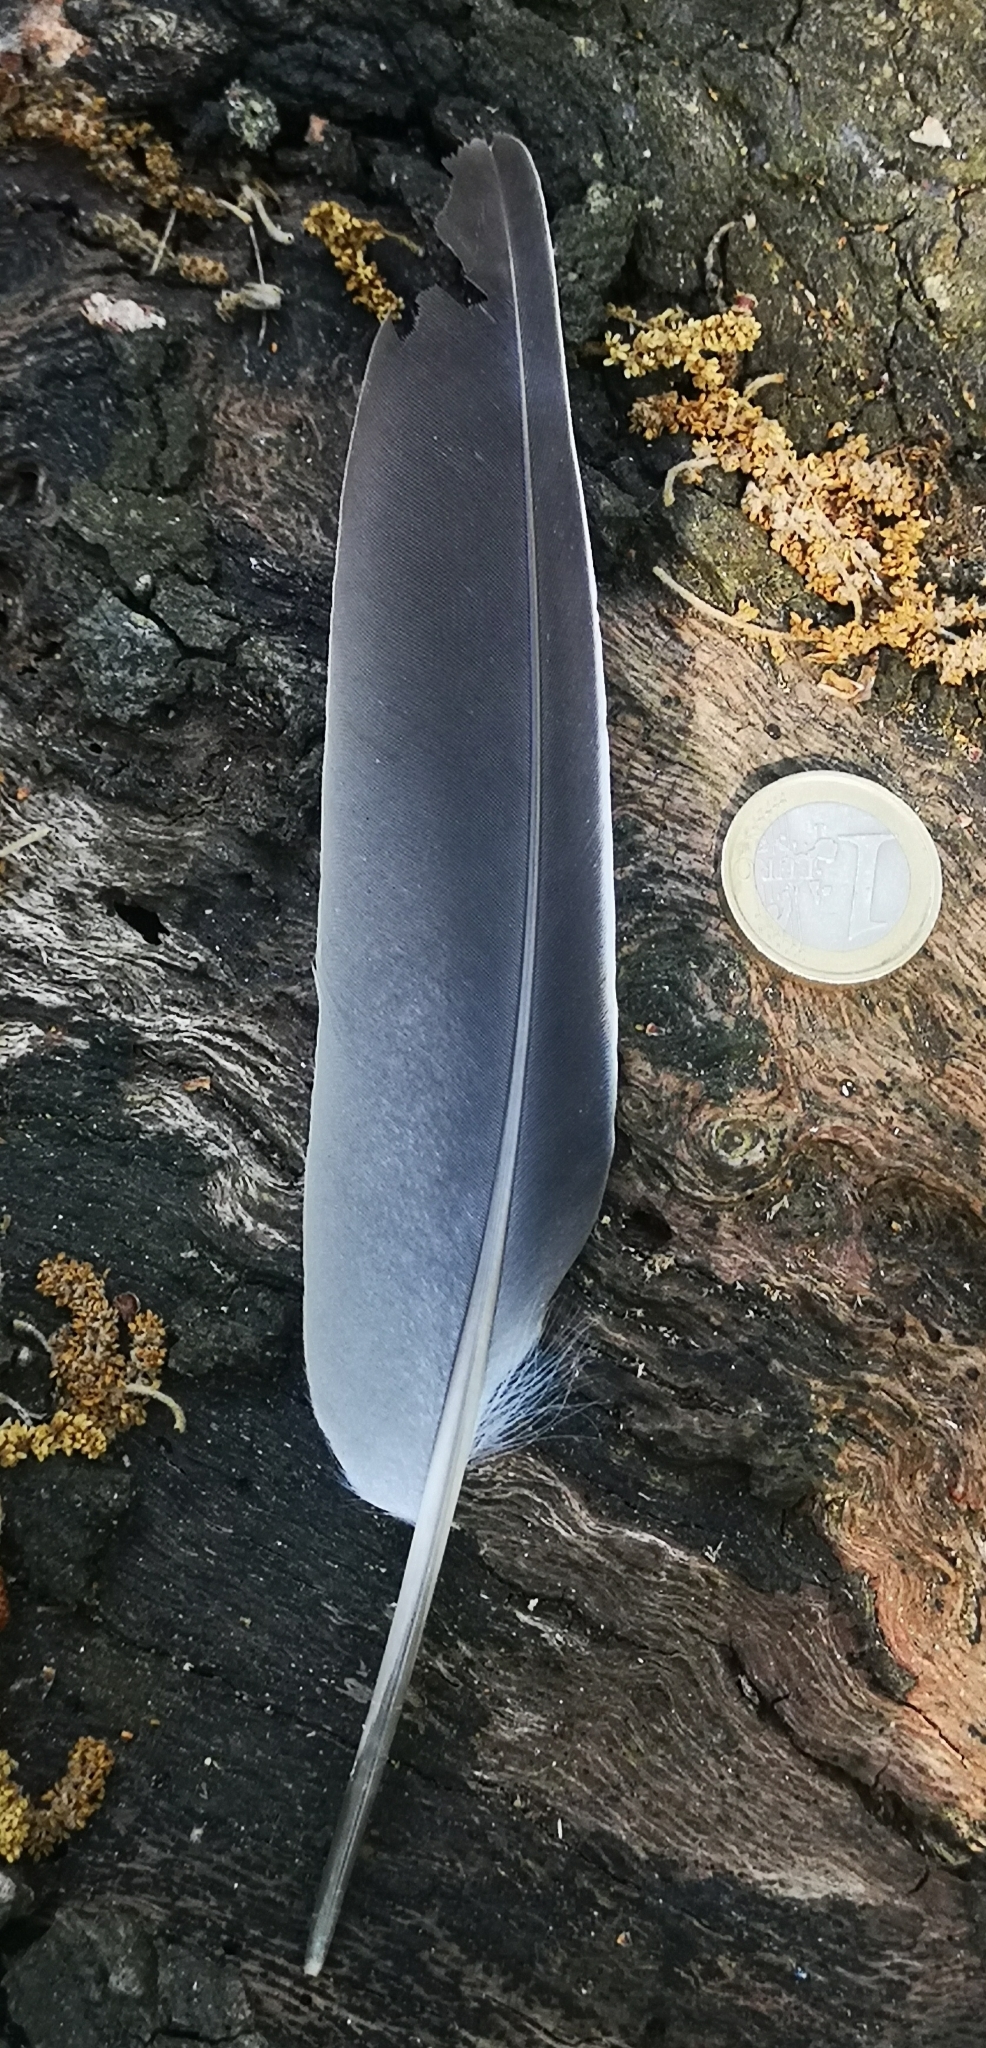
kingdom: Animalia
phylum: Chordata
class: Aves
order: Columbiformes
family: Columbidae
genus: Columba
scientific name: Columba palumbus
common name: Common wood pigeon
